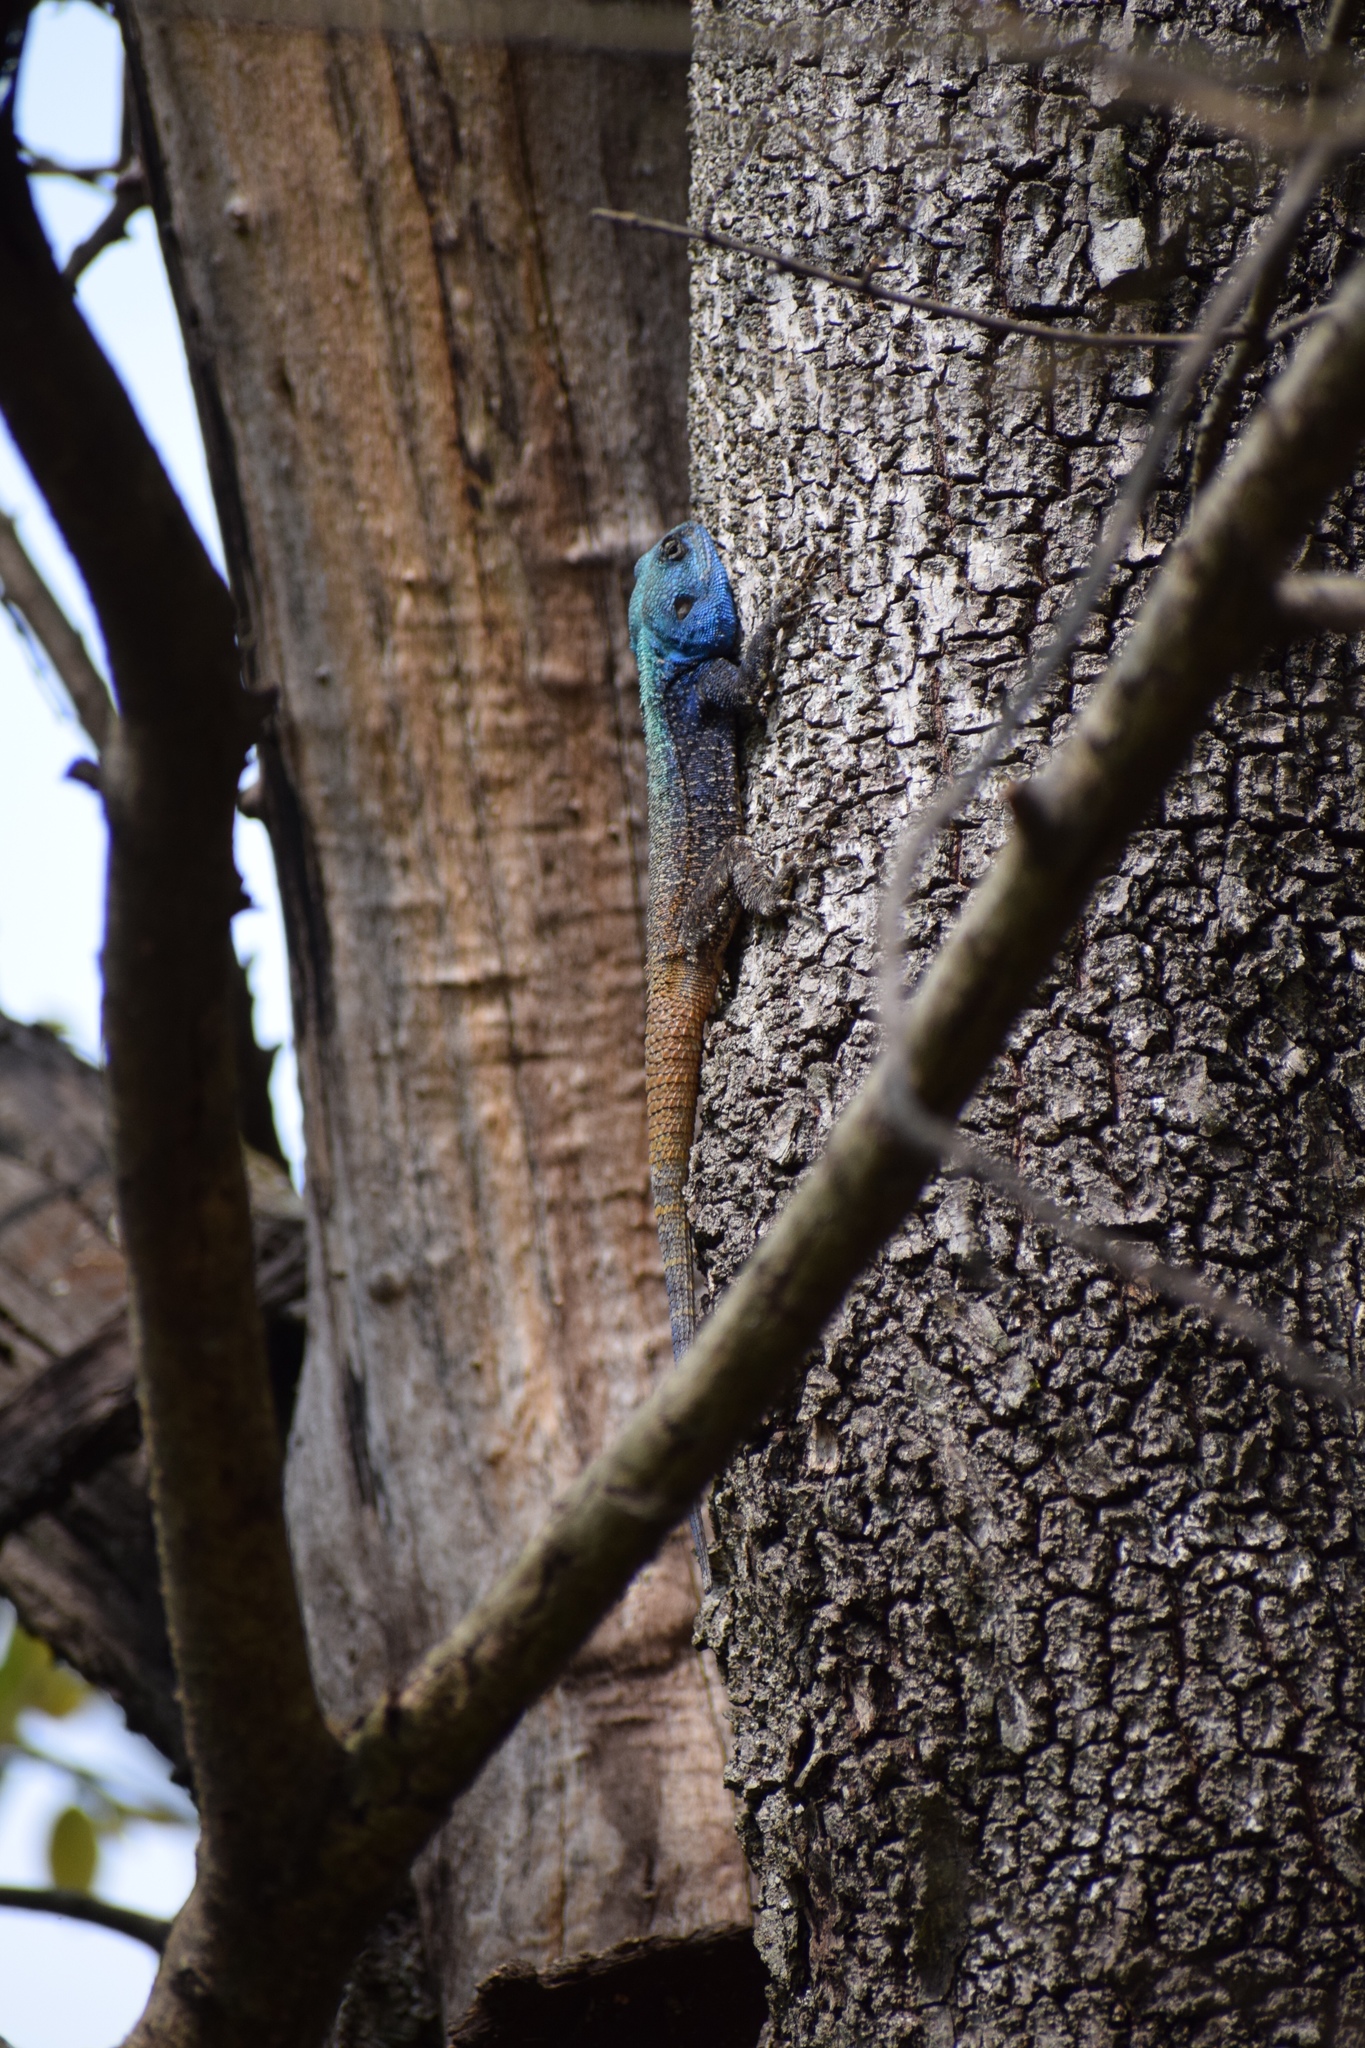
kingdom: Animalia
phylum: Chordata
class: Squamata
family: Agamidae
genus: Acanthocercus
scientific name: Acanthocercus atricollis
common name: Southern tree agama
